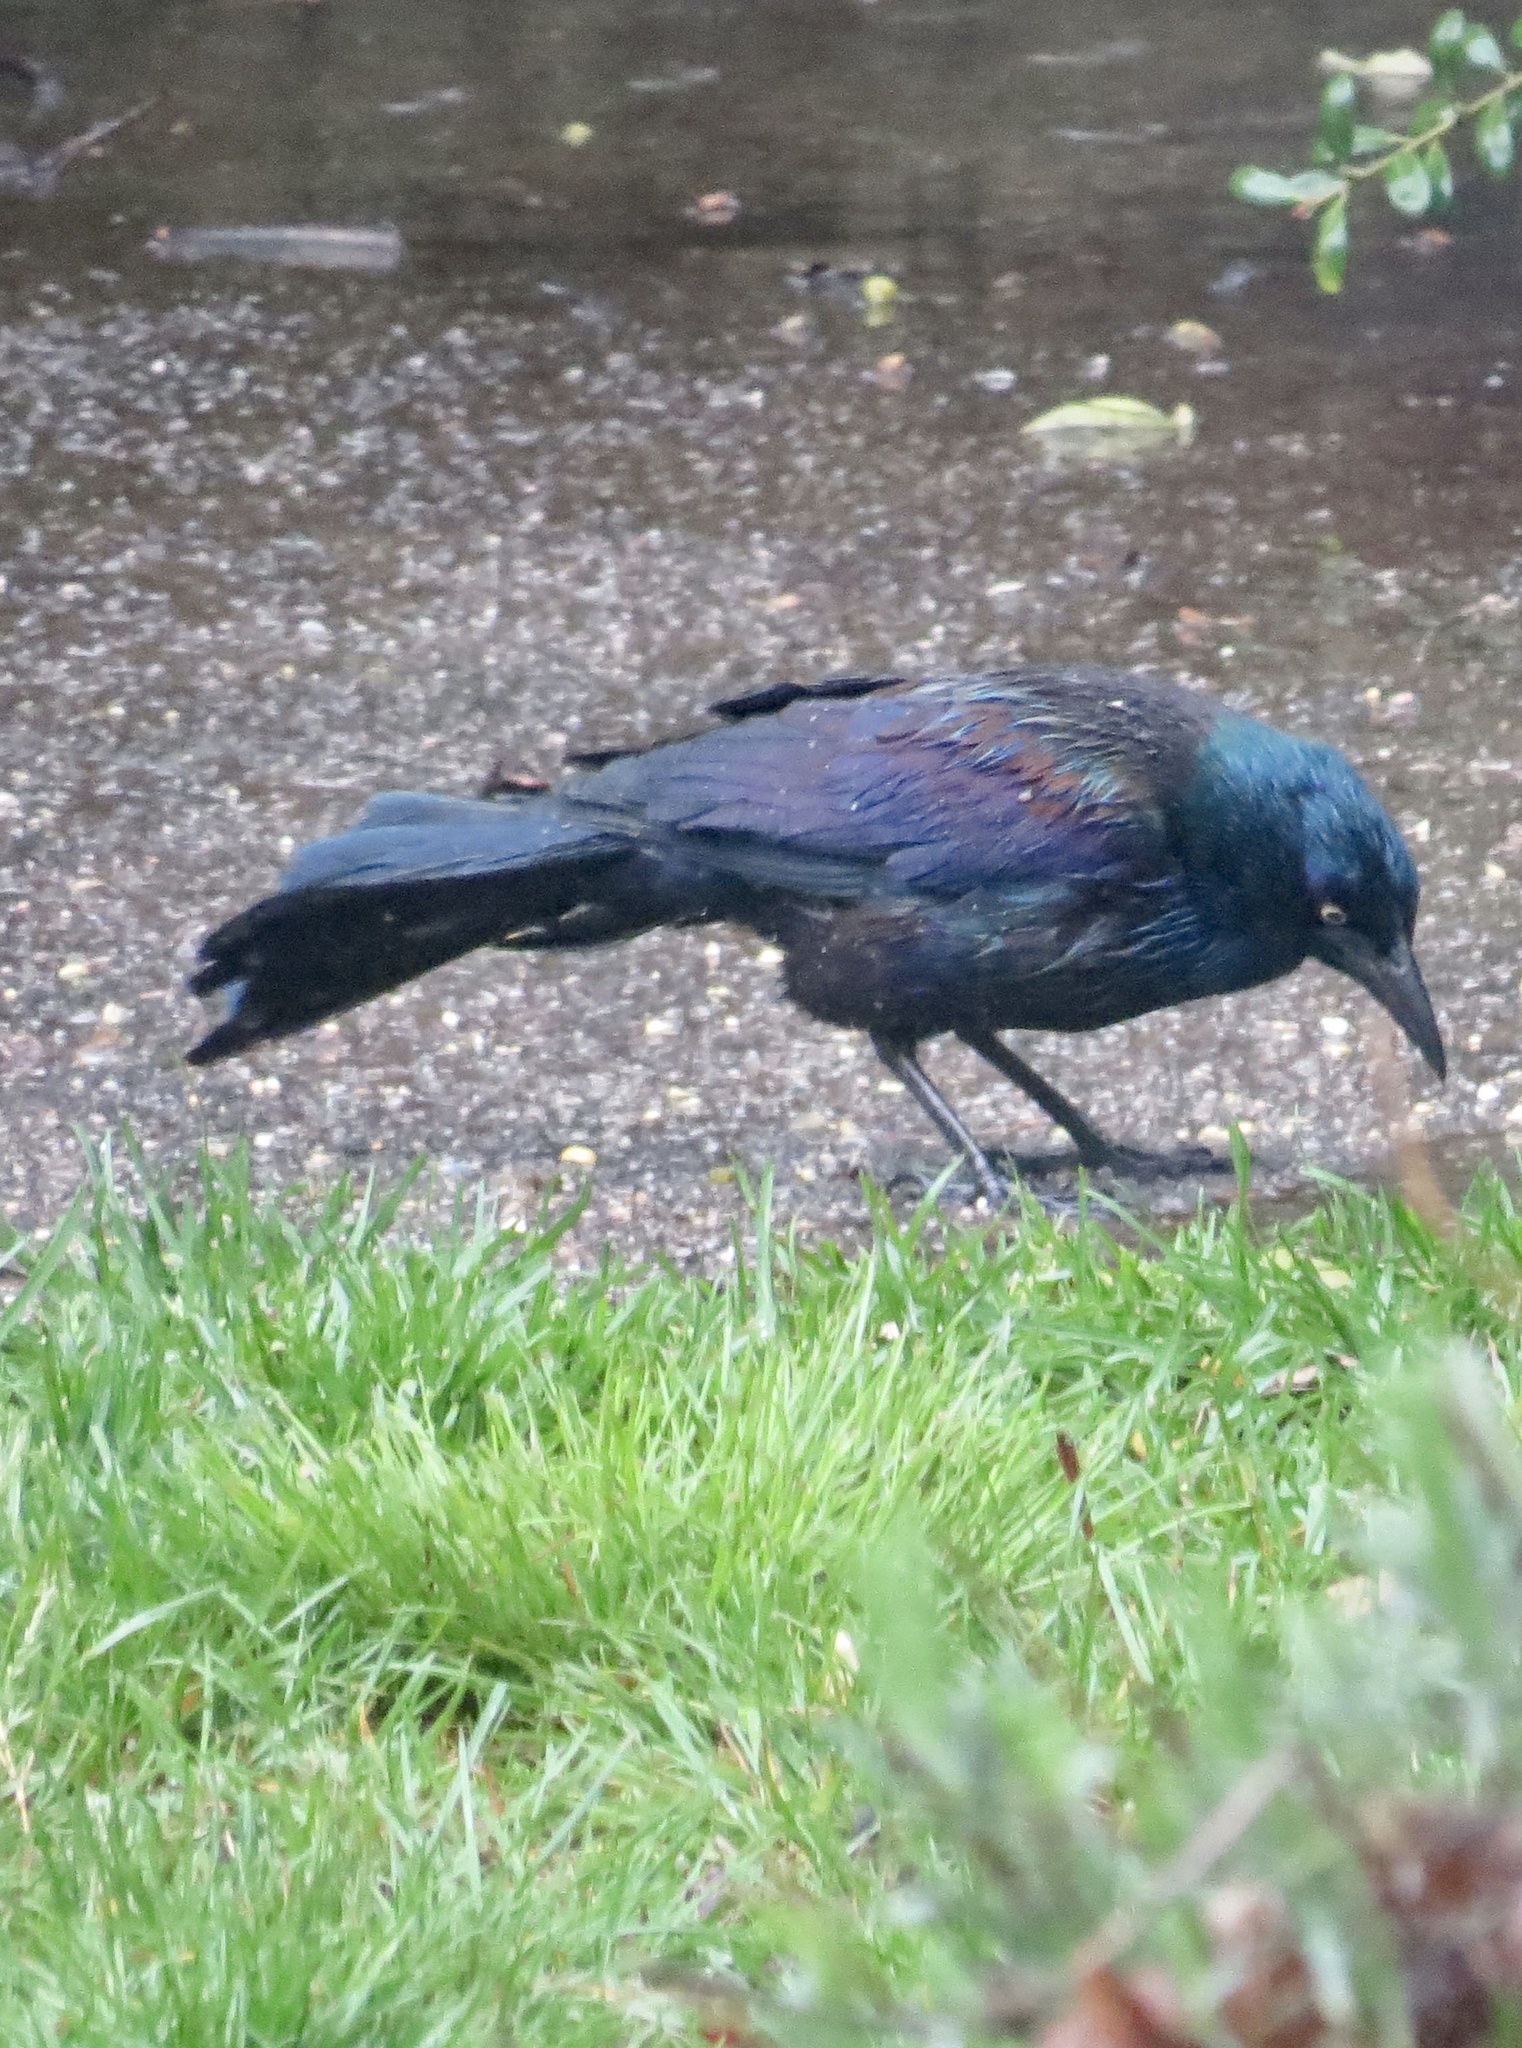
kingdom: Animalia
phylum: Chordata
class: Aves
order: Passeriformes
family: Icteridae
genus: Quiscalus
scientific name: Quiscalus quiscula
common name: Common grackle
